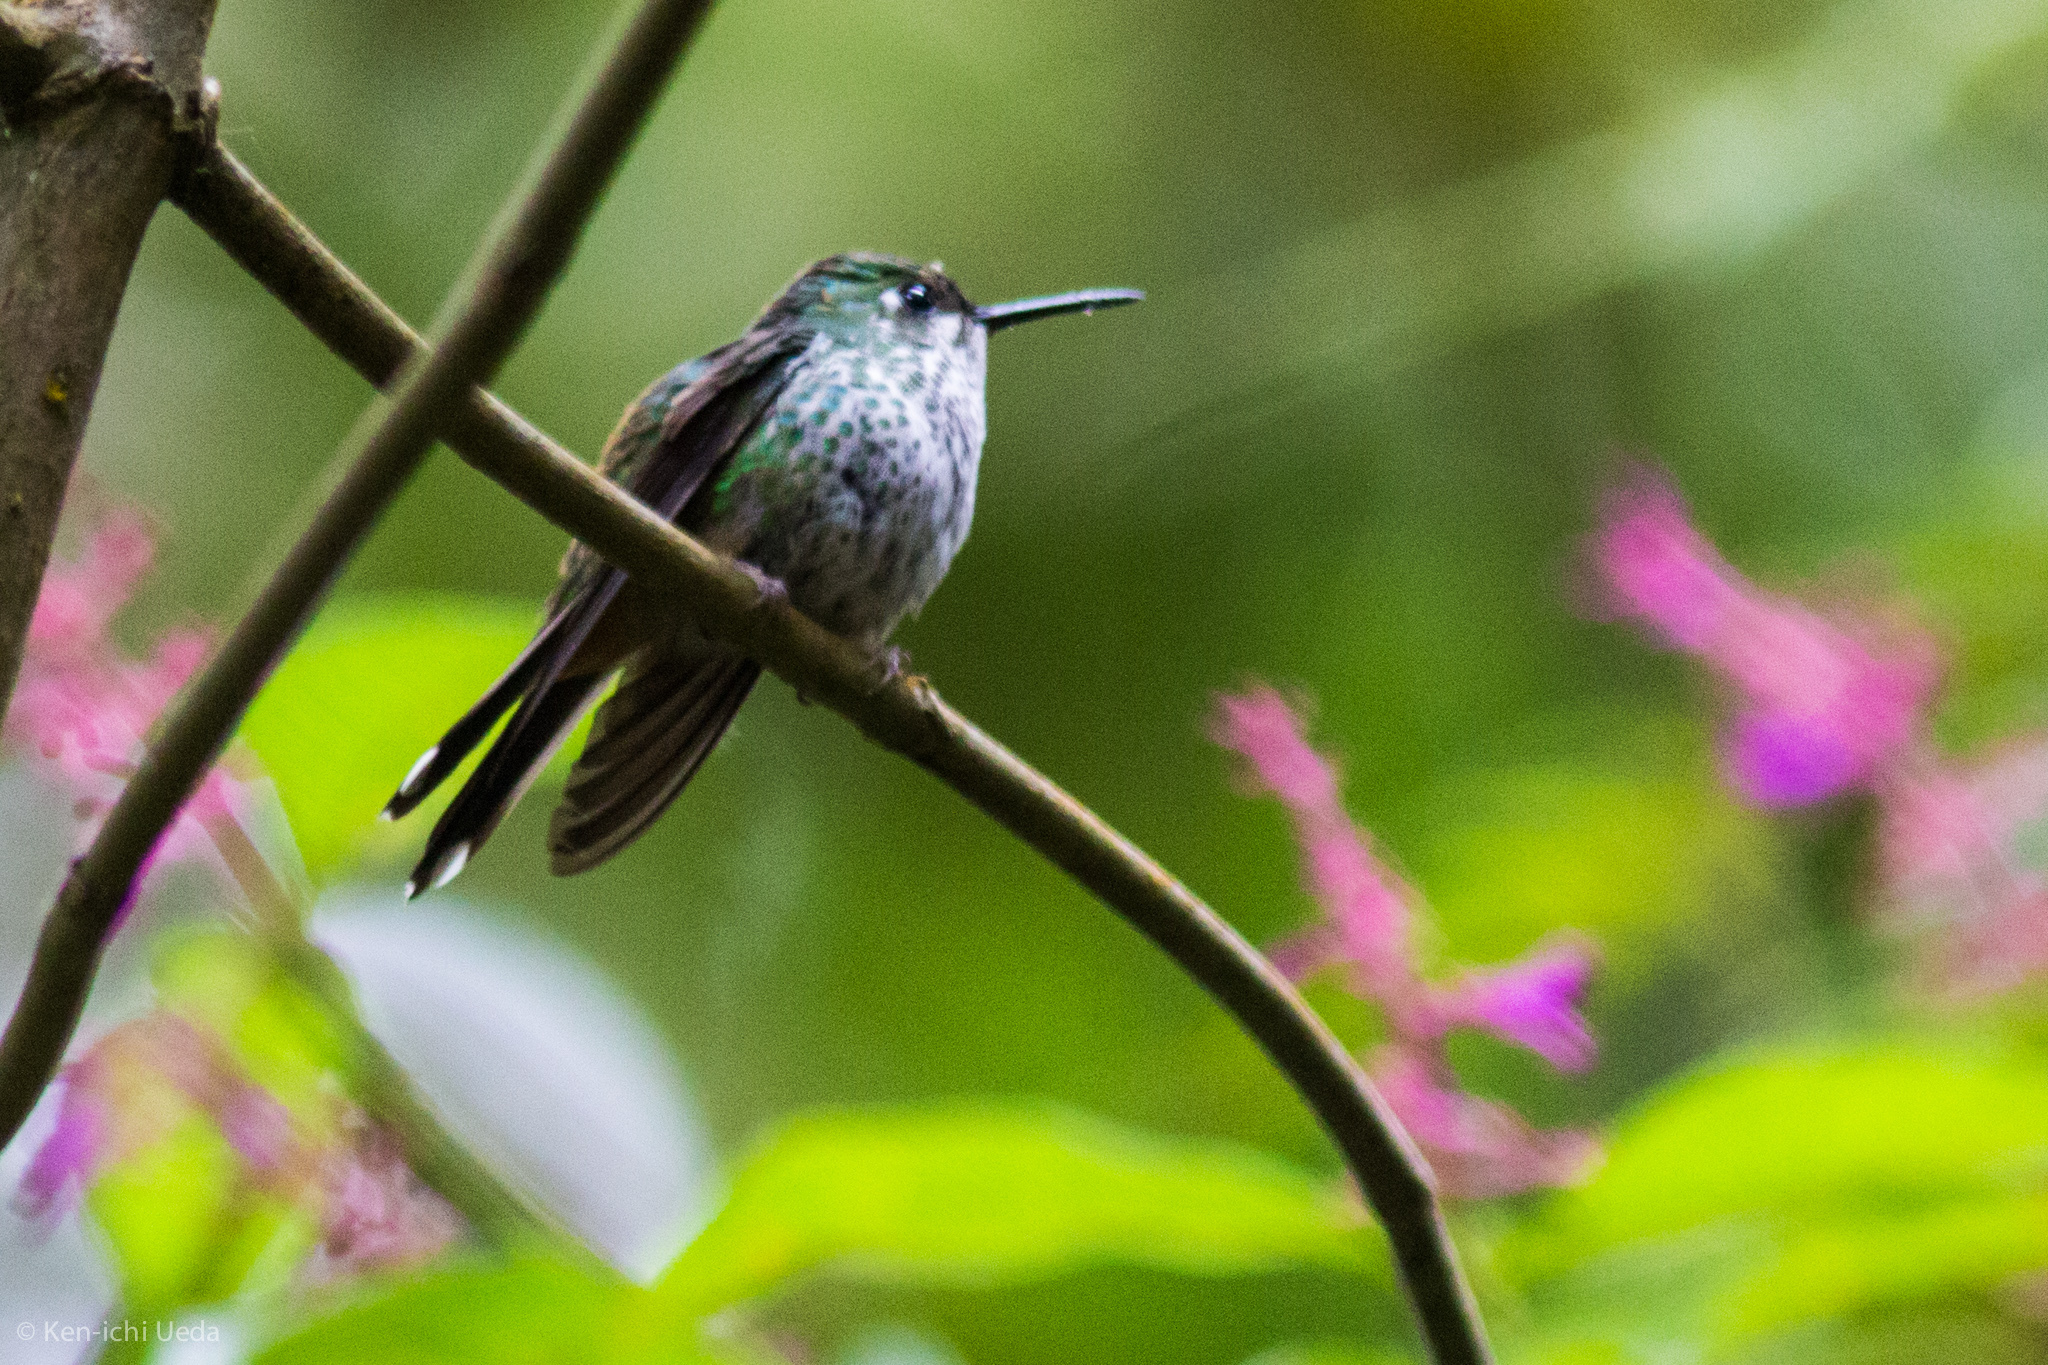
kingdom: Animalia
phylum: Chordata
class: Aves
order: Apodiformes
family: Trochilidae
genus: Ocreatus
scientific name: Ocreatus underwoodii
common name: Booted racket-tail
